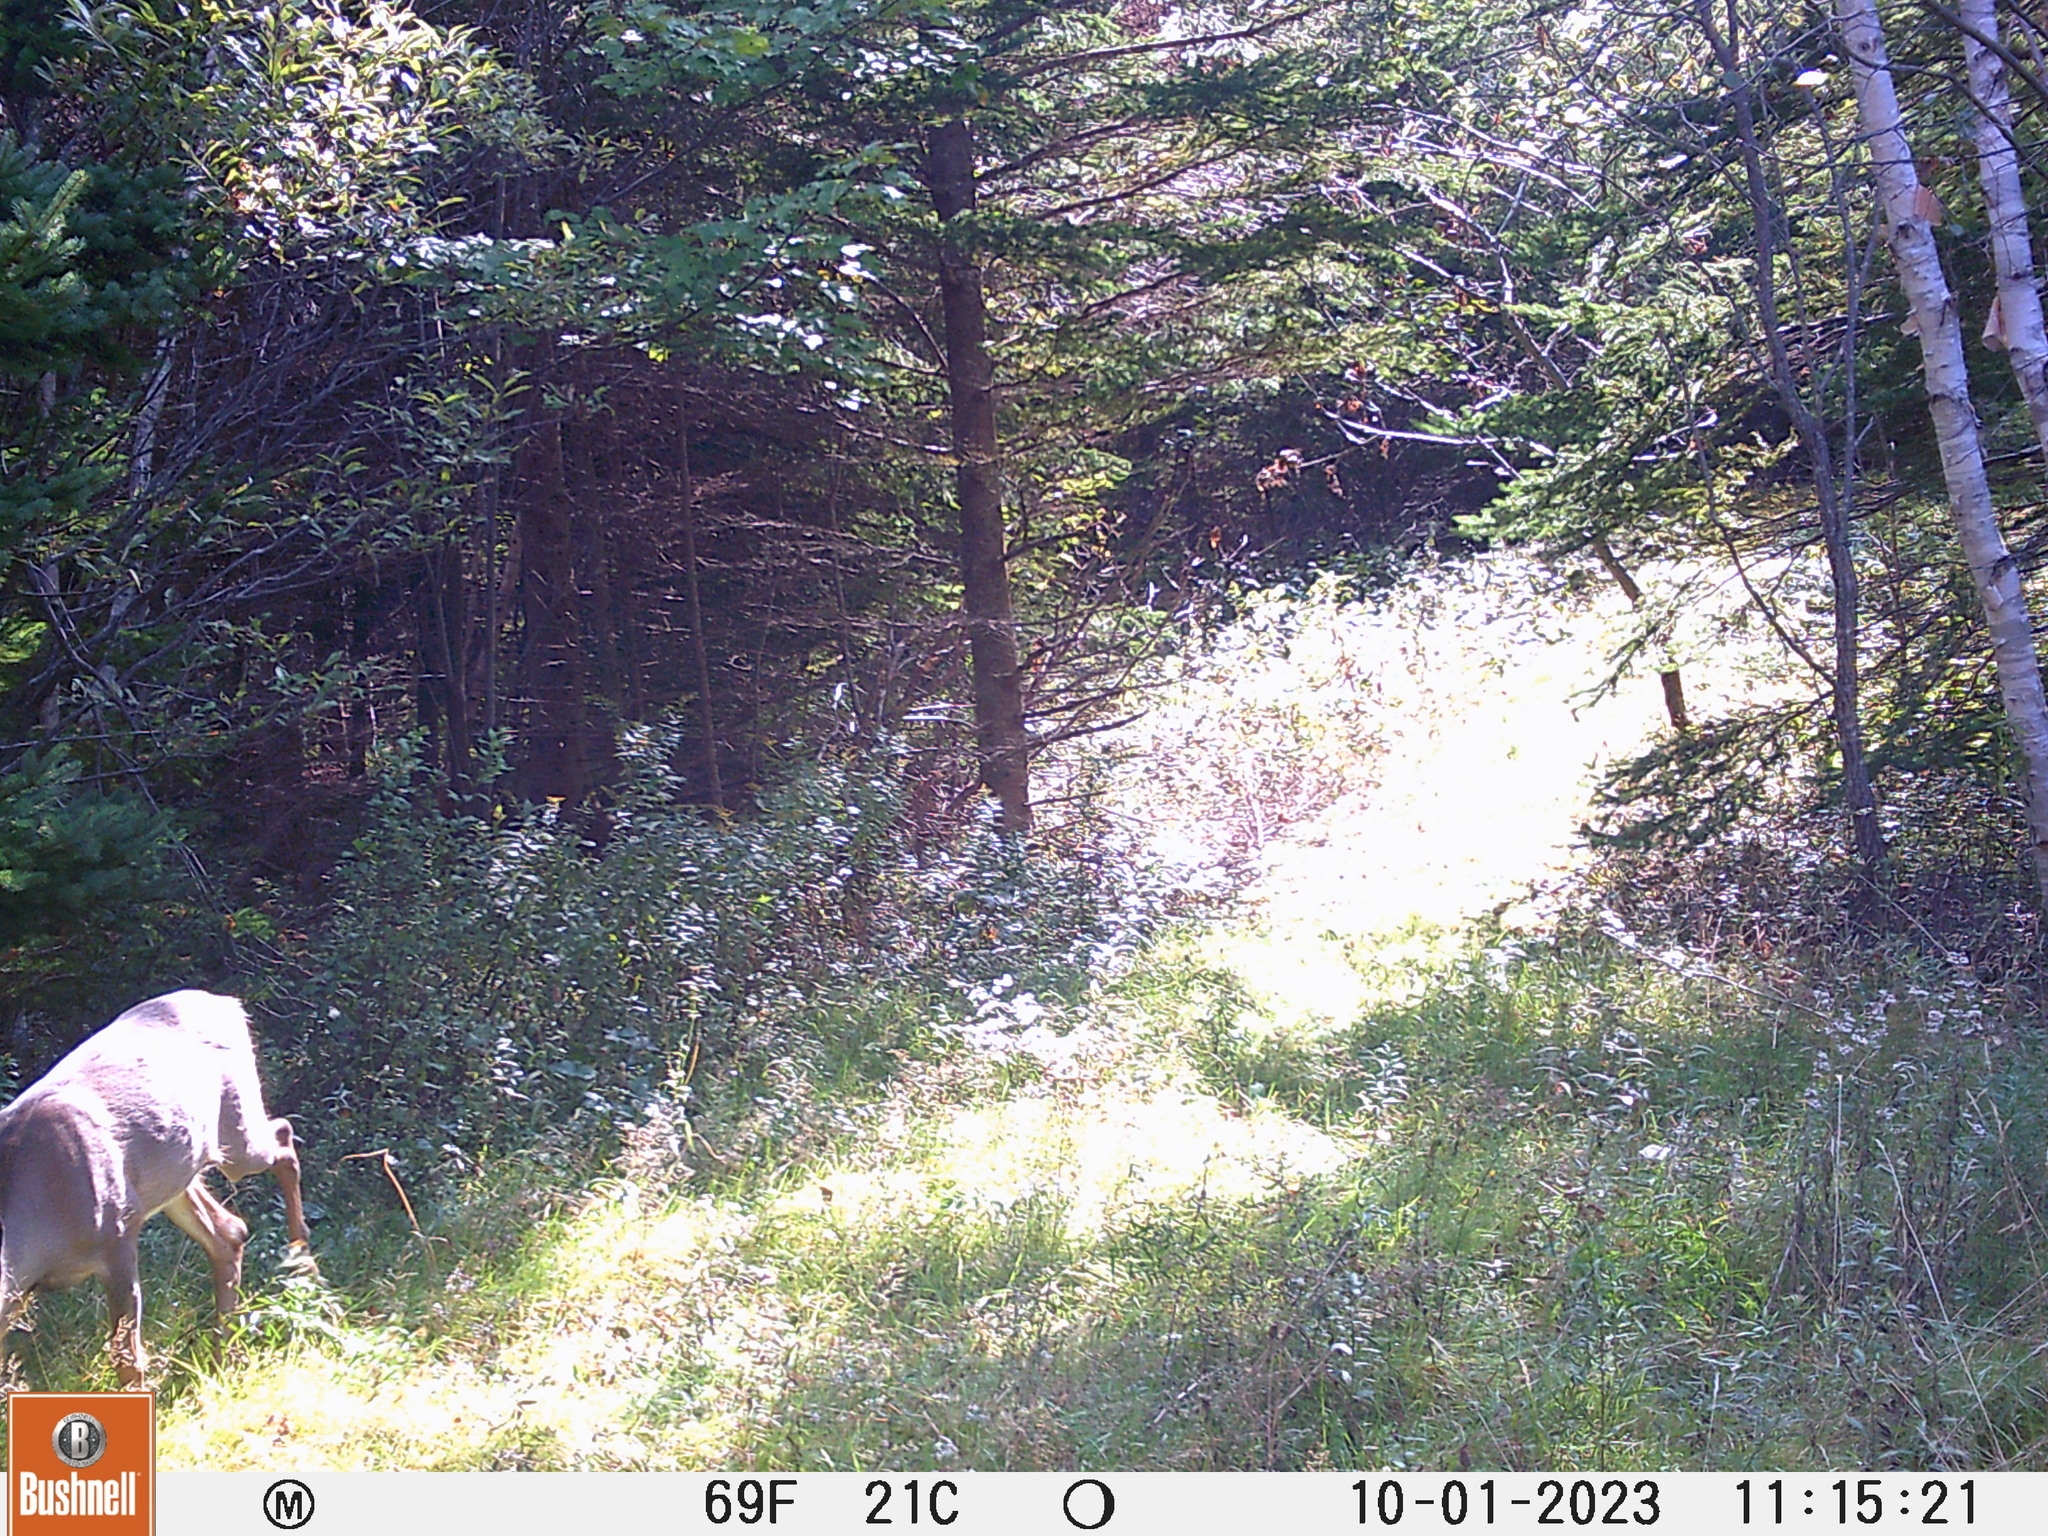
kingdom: Animalia
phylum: Chordata
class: Mammalia
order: Artiodactyla
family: Cervidae
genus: Odocoileus
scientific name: Odocoileus virginianus
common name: White-tailed deer
